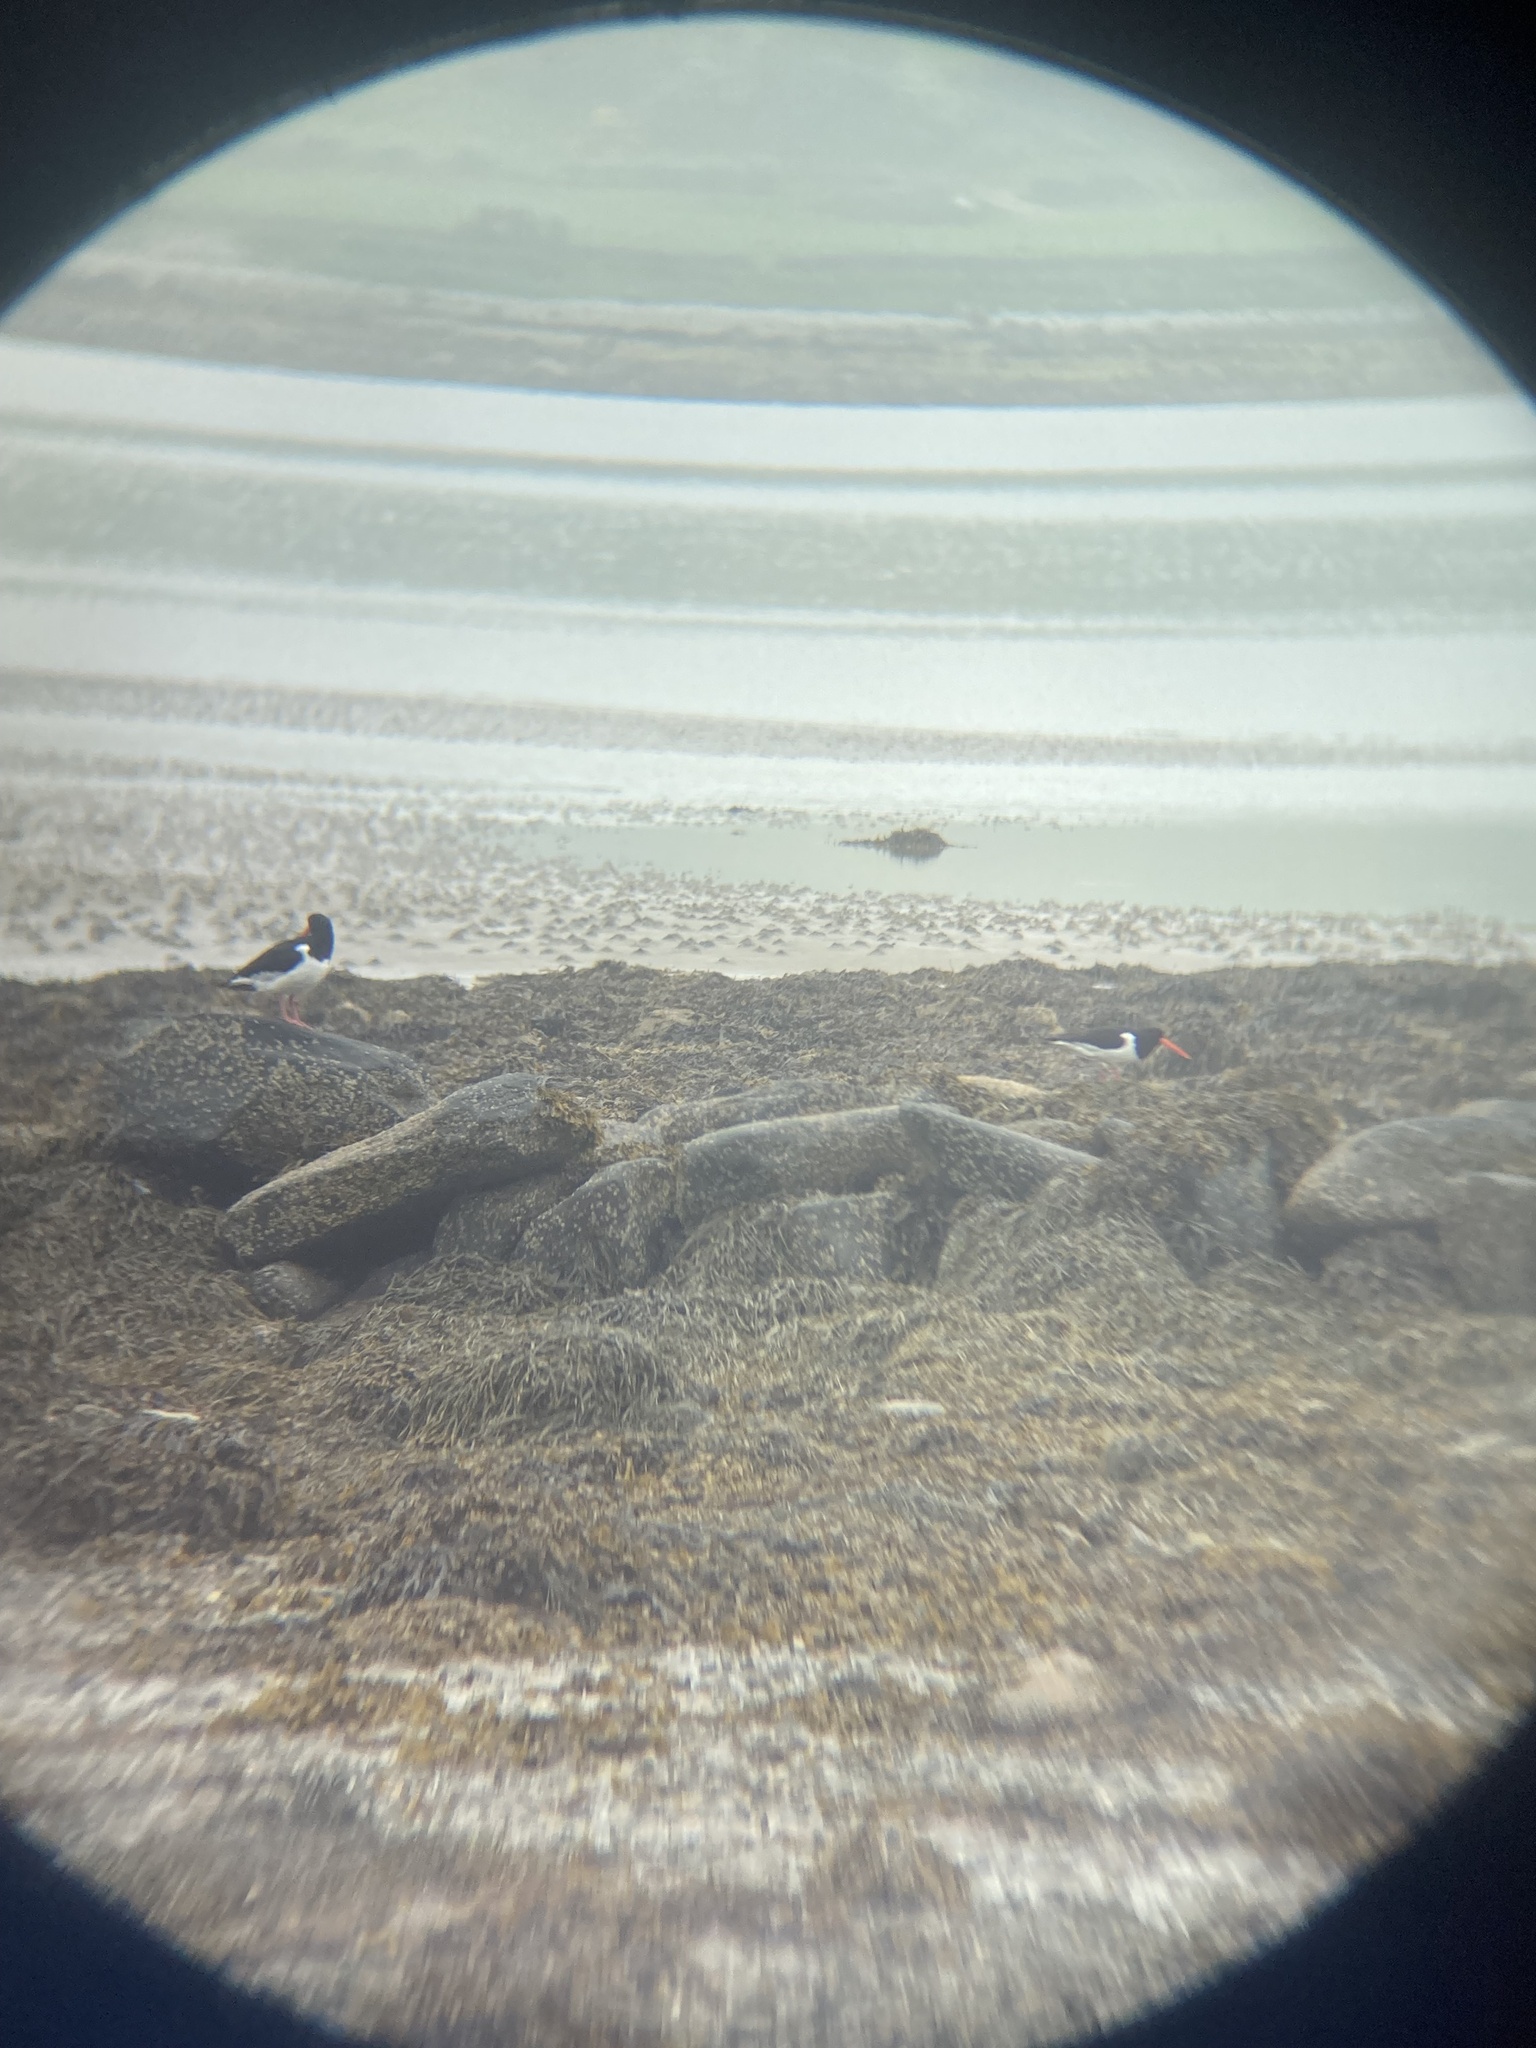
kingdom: Animalia
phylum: Chordata
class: Aves
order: Charadriiformes
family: Haematopodidae
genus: Haematopus
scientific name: Haematopus ostralegus
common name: Eurasian oystercatcher
